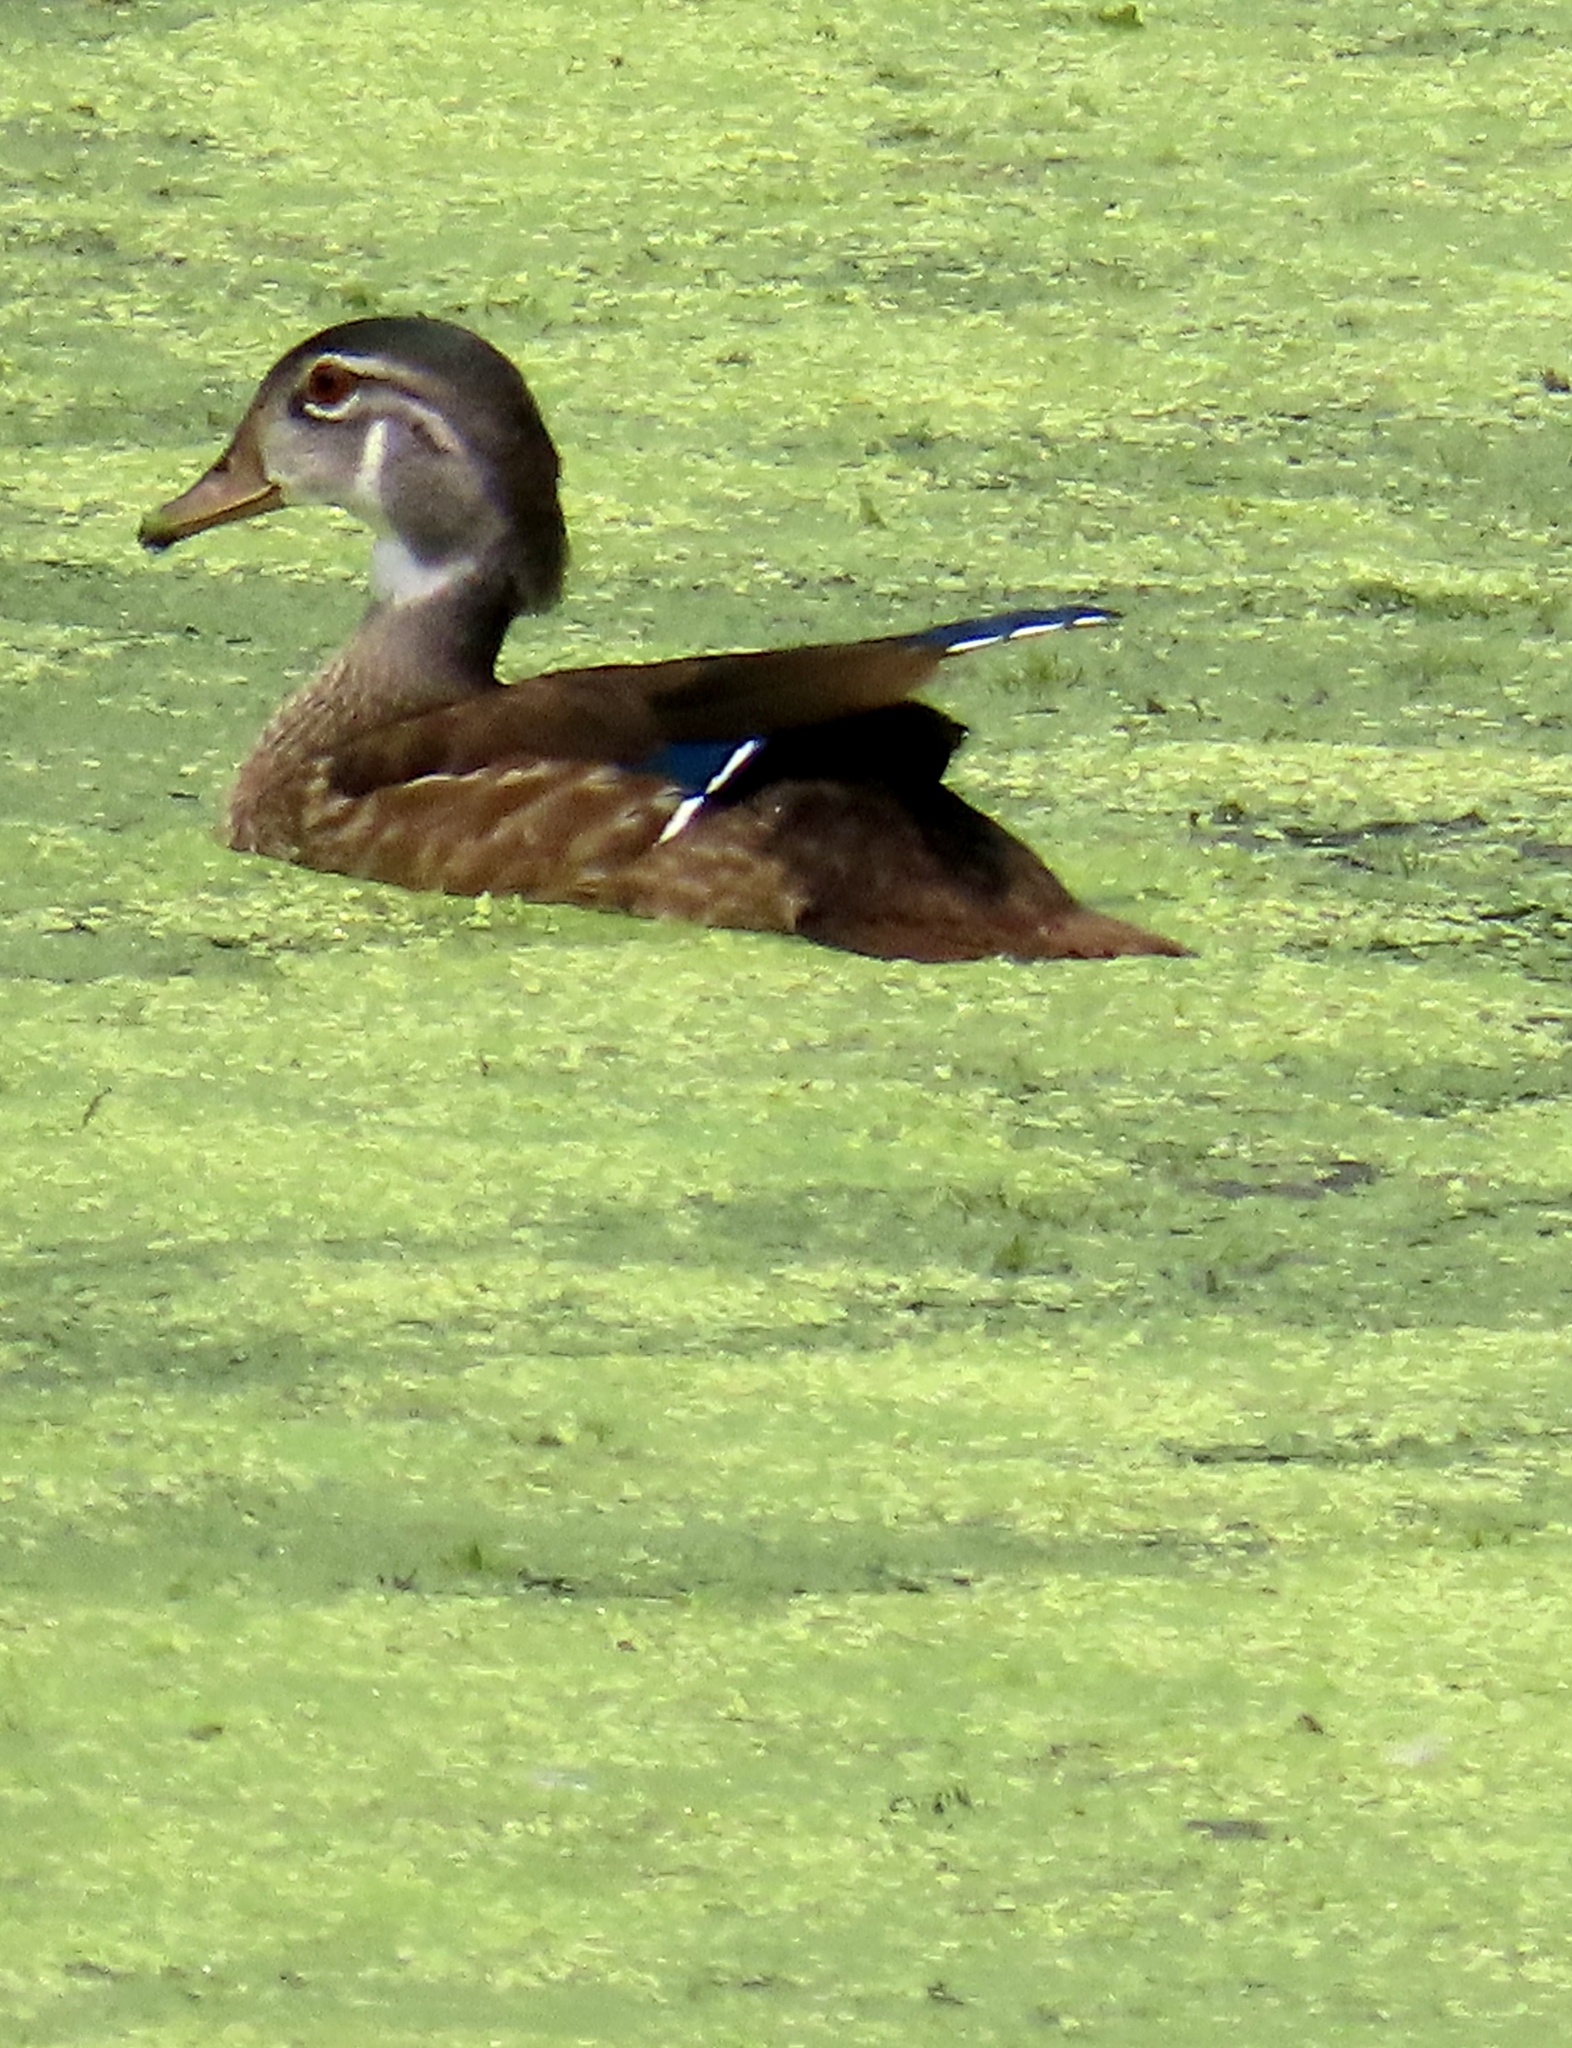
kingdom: Animalia
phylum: Chordata
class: Aves
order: Anseriformes
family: Anatidae
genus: Aix
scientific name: Aix sponsa
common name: Wood duck
